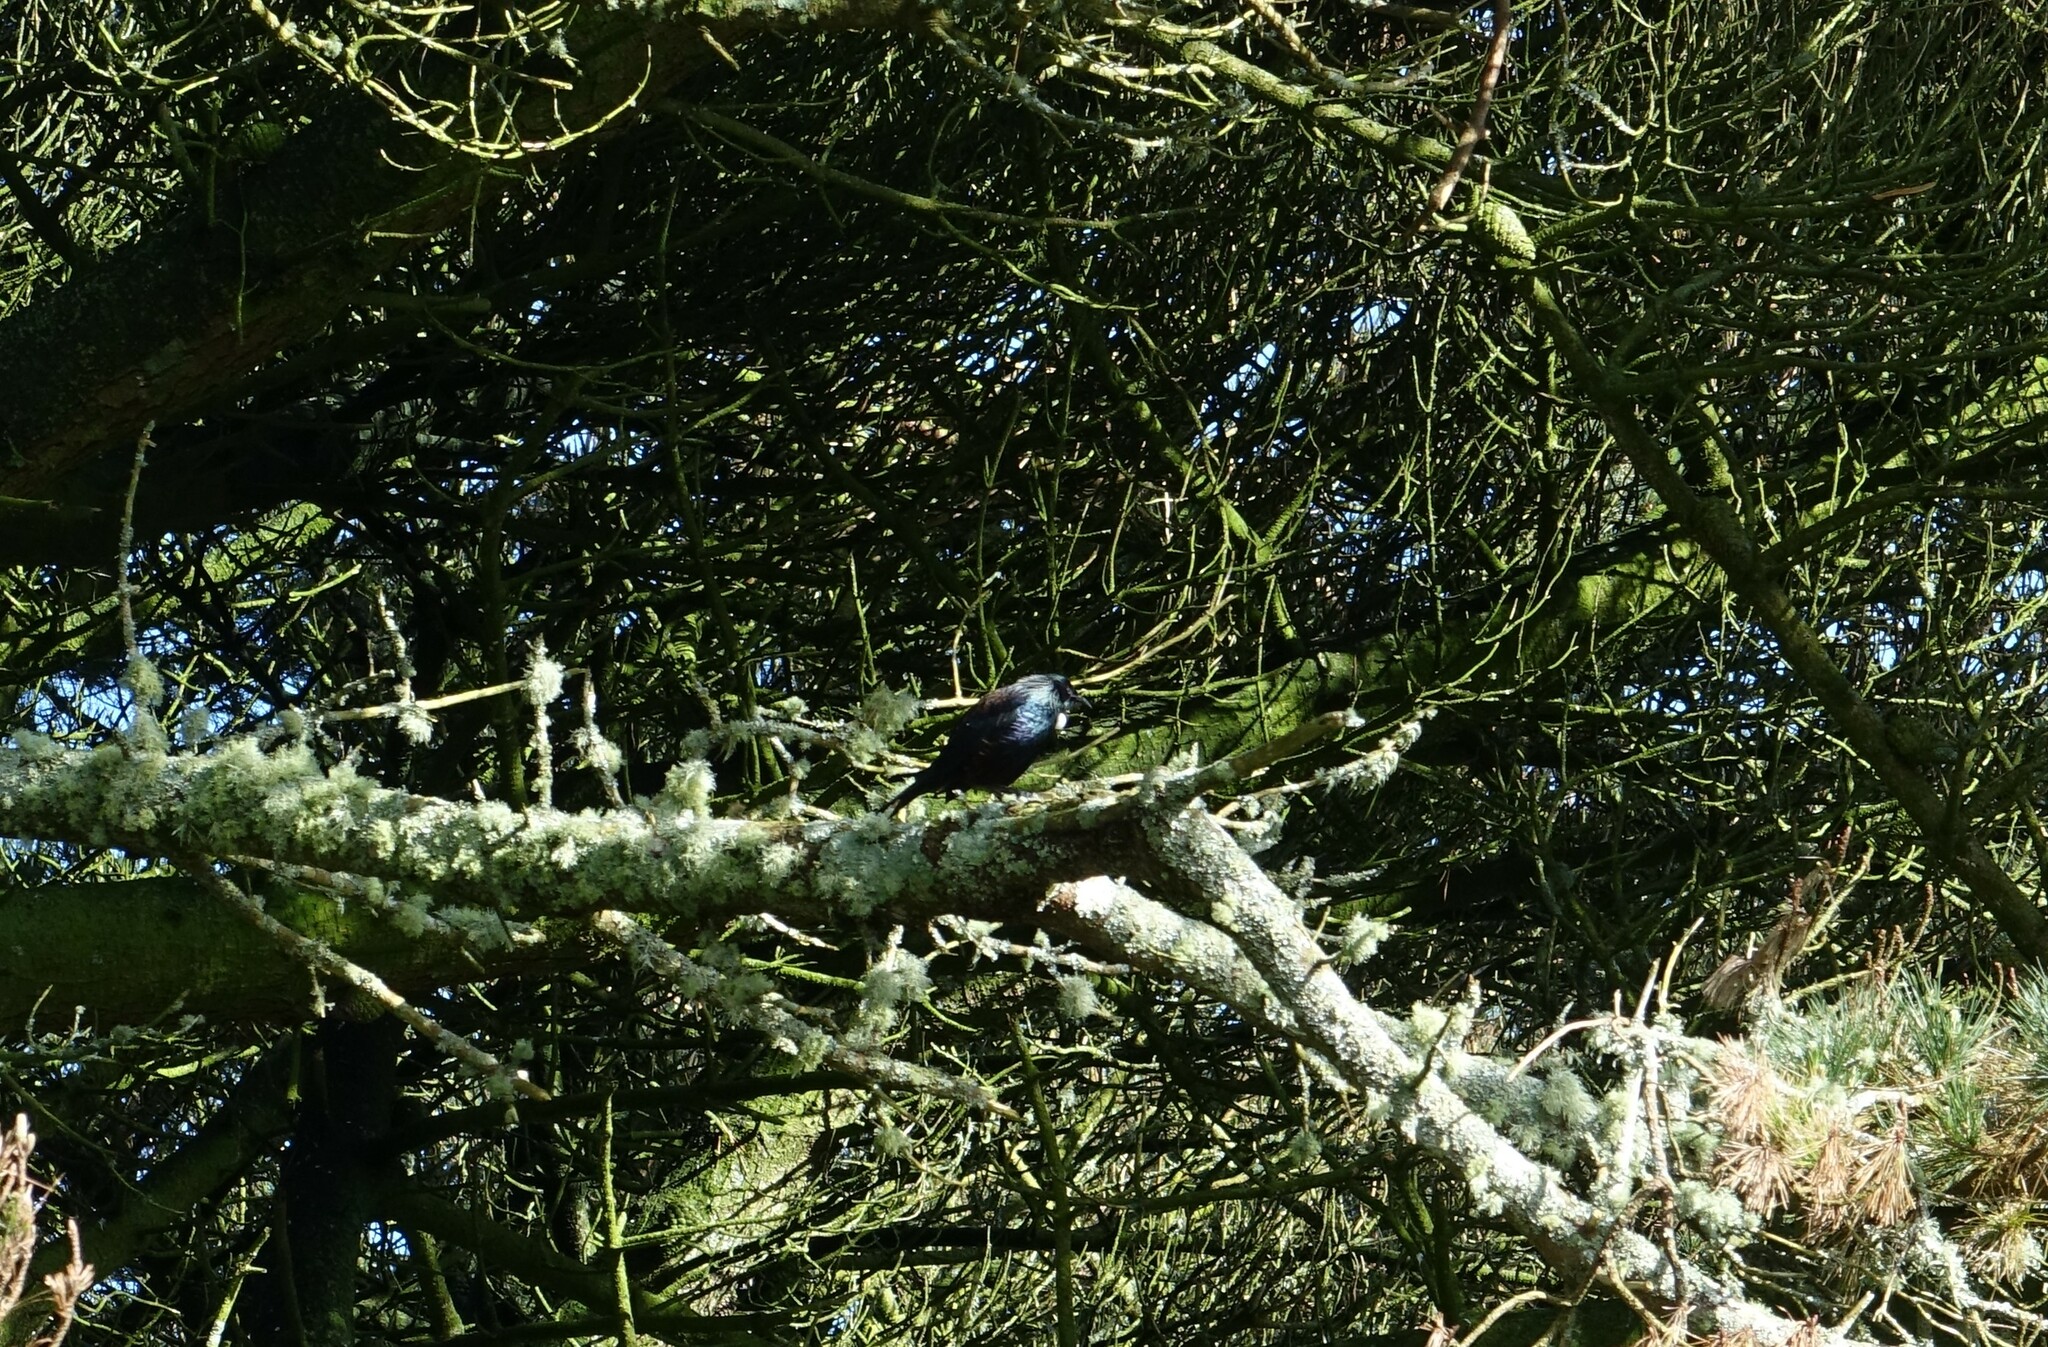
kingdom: Animalia
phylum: Chordata
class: Aves
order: Passeriformes
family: Meliphagidae
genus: Prosthemadera
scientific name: Prosthemadera novaeseelandiae
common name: Tui
